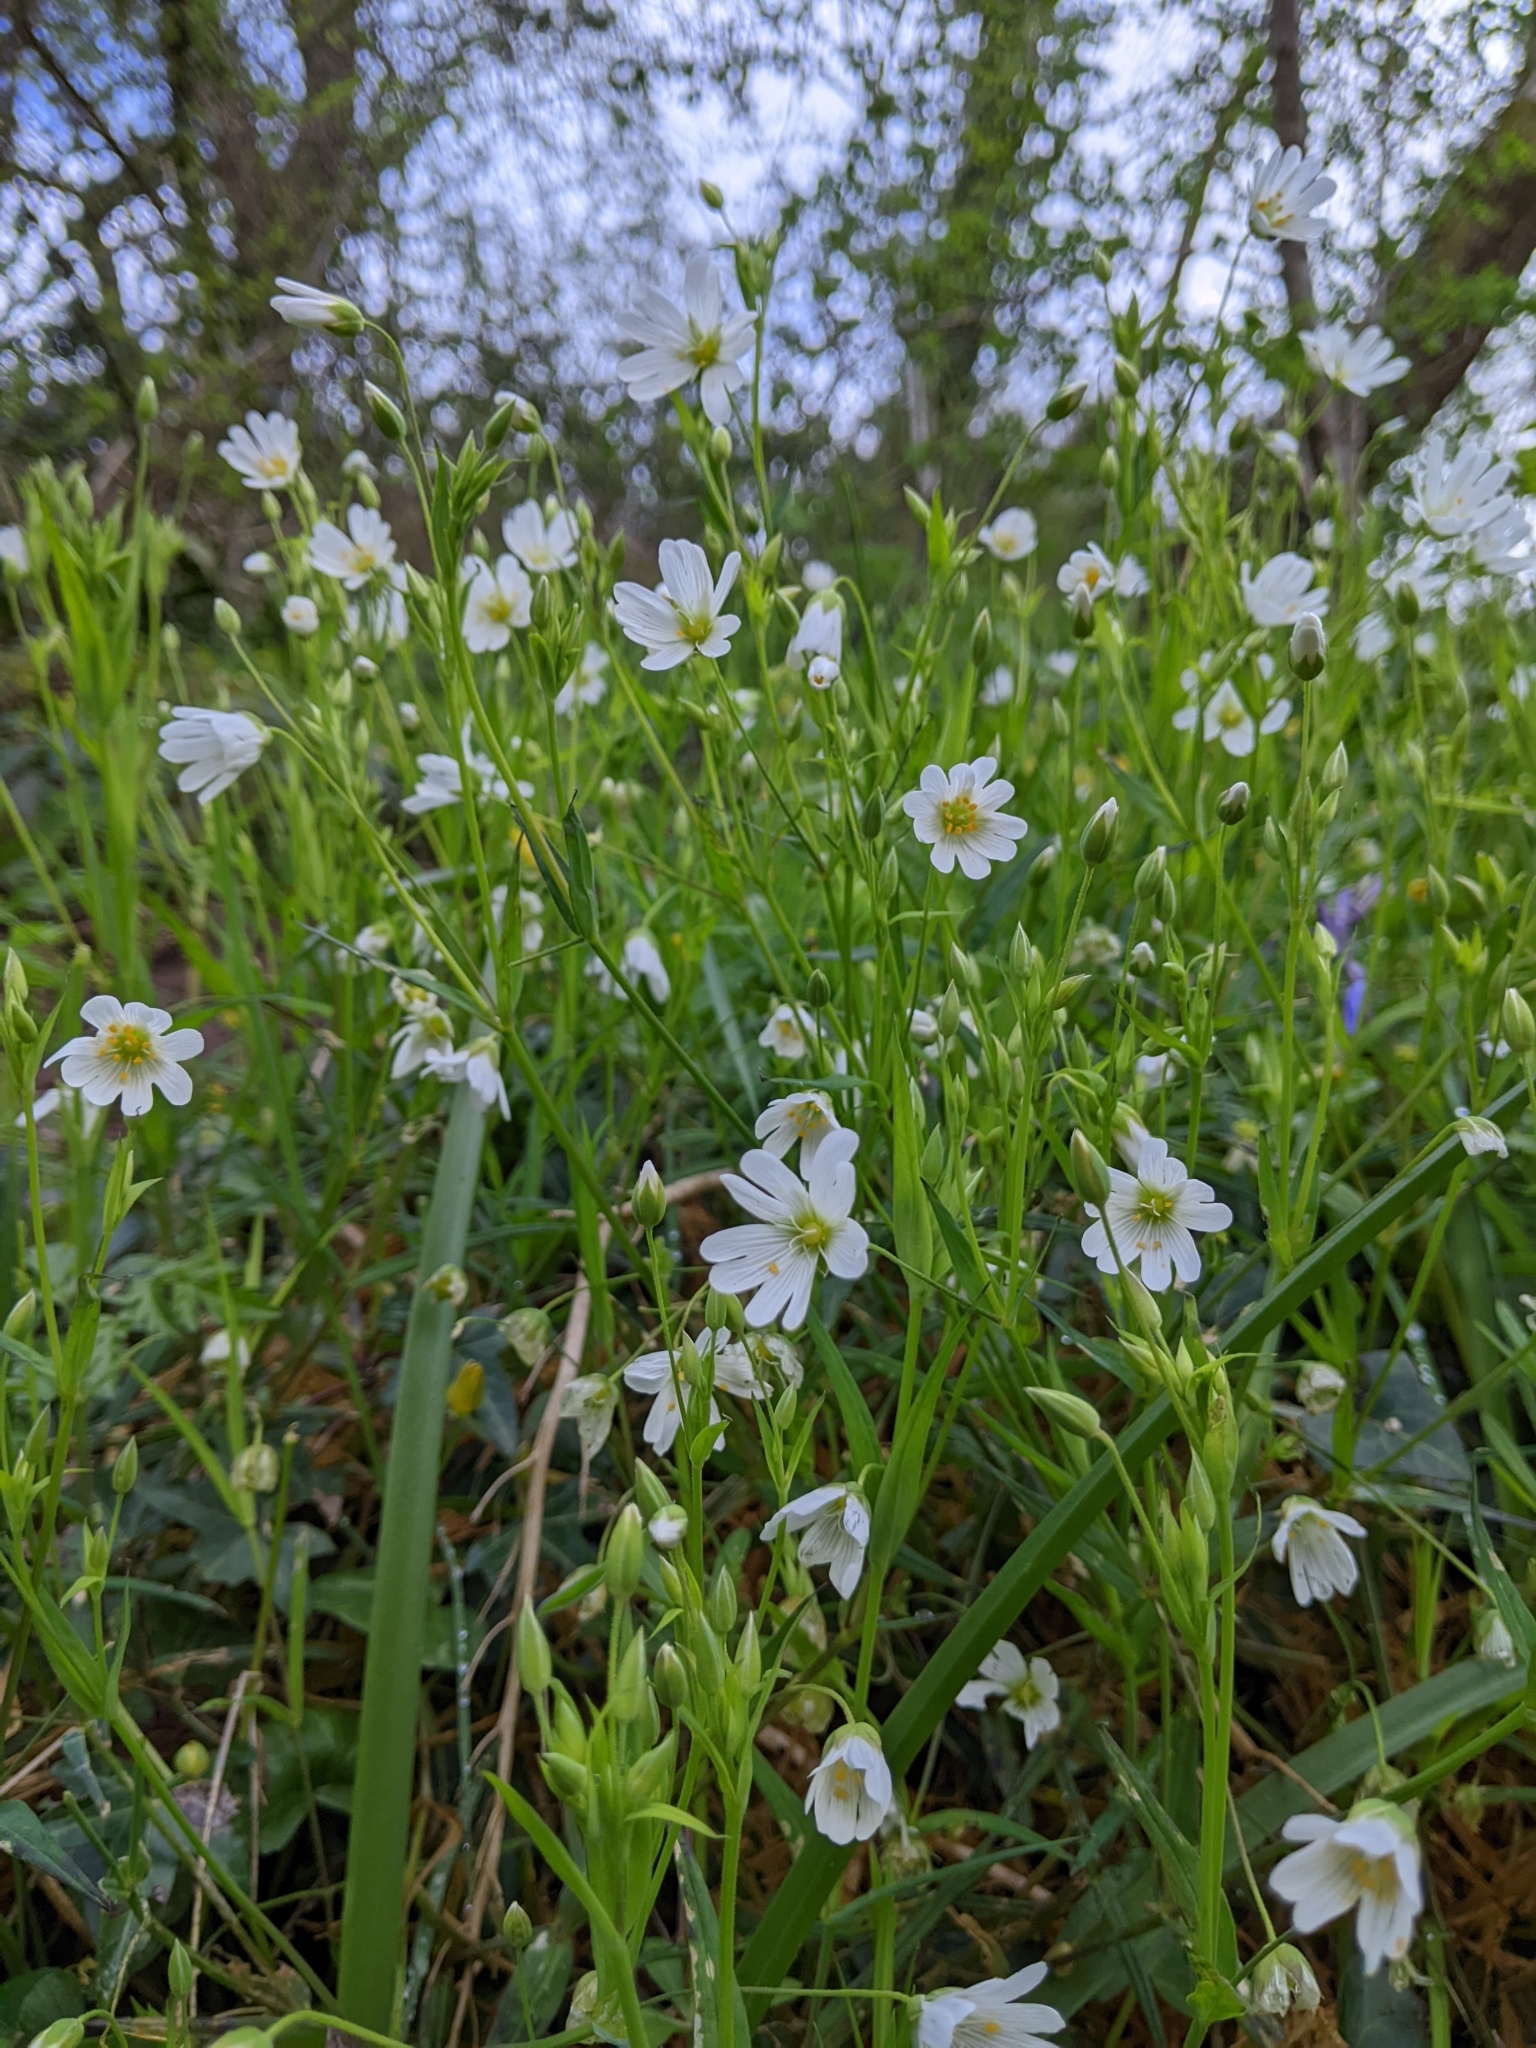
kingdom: Plantae
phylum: Tracheophyta
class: Magnoliopsida
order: Caryophyllales
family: Caryophyllaceae
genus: Rabelera
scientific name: Rabelera holostea
